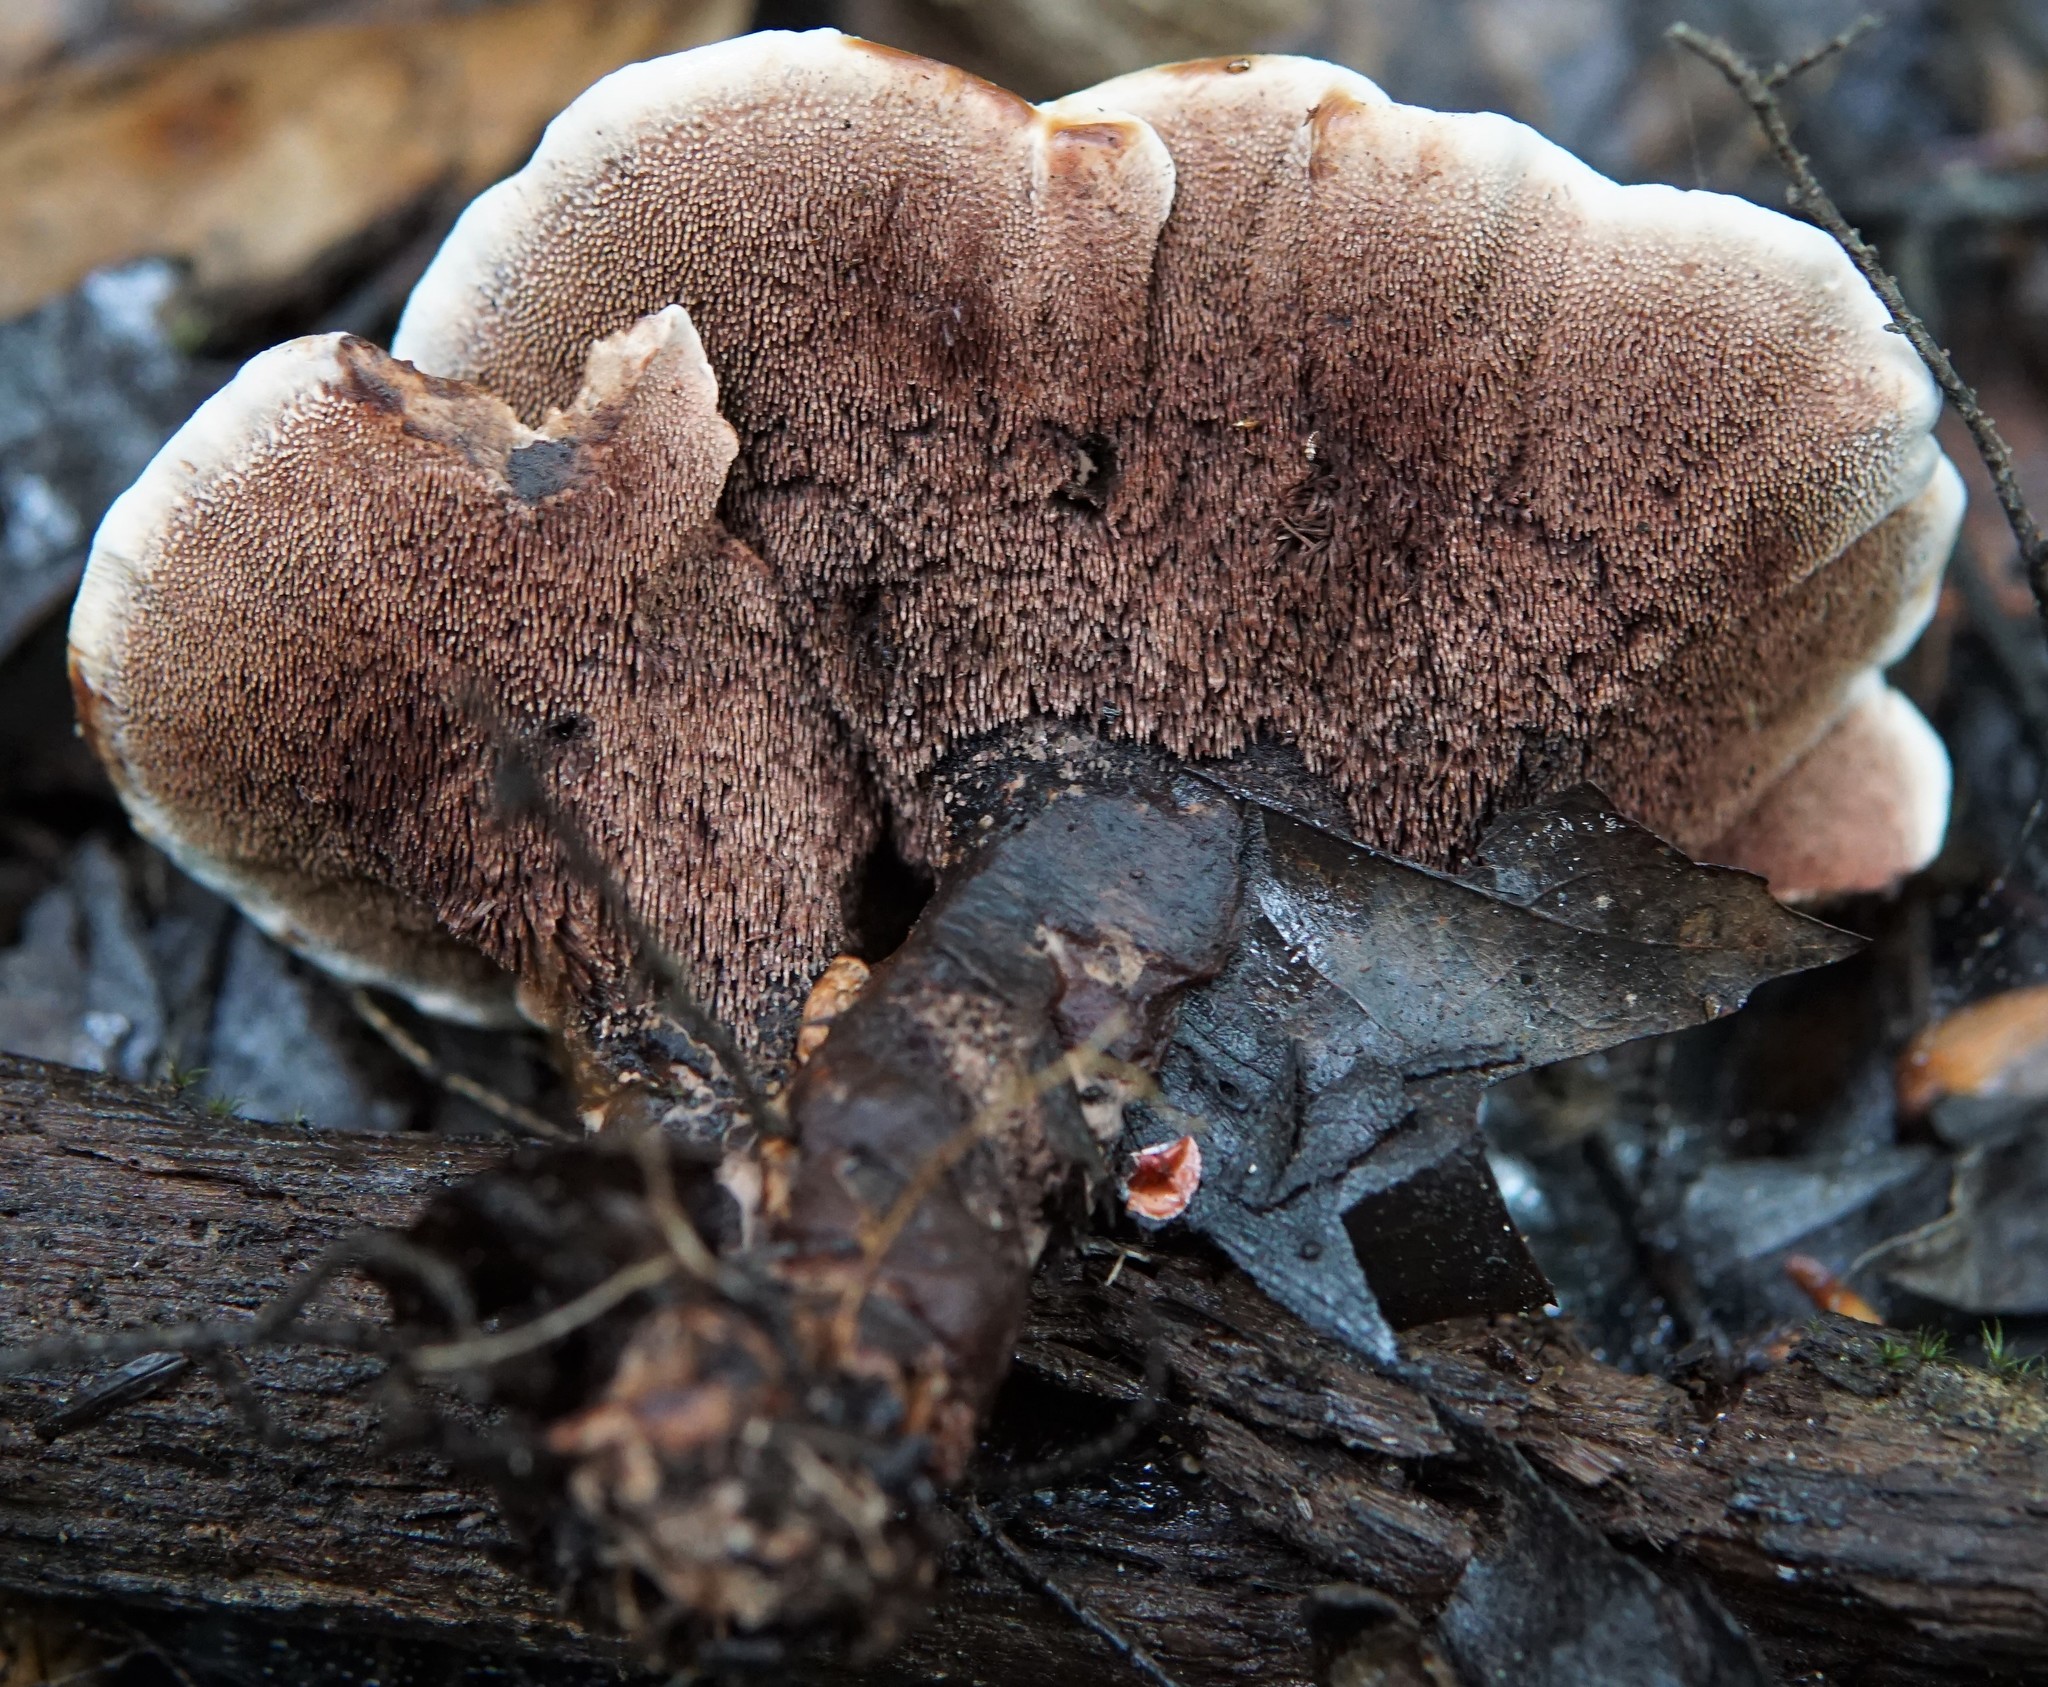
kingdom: Fungi
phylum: Basidiomycota
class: Agaricomycetes
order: Thelephorales
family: Bankeraceae
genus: Hydnellum
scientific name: Hydnellum concrescens
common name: Zoned tooth
